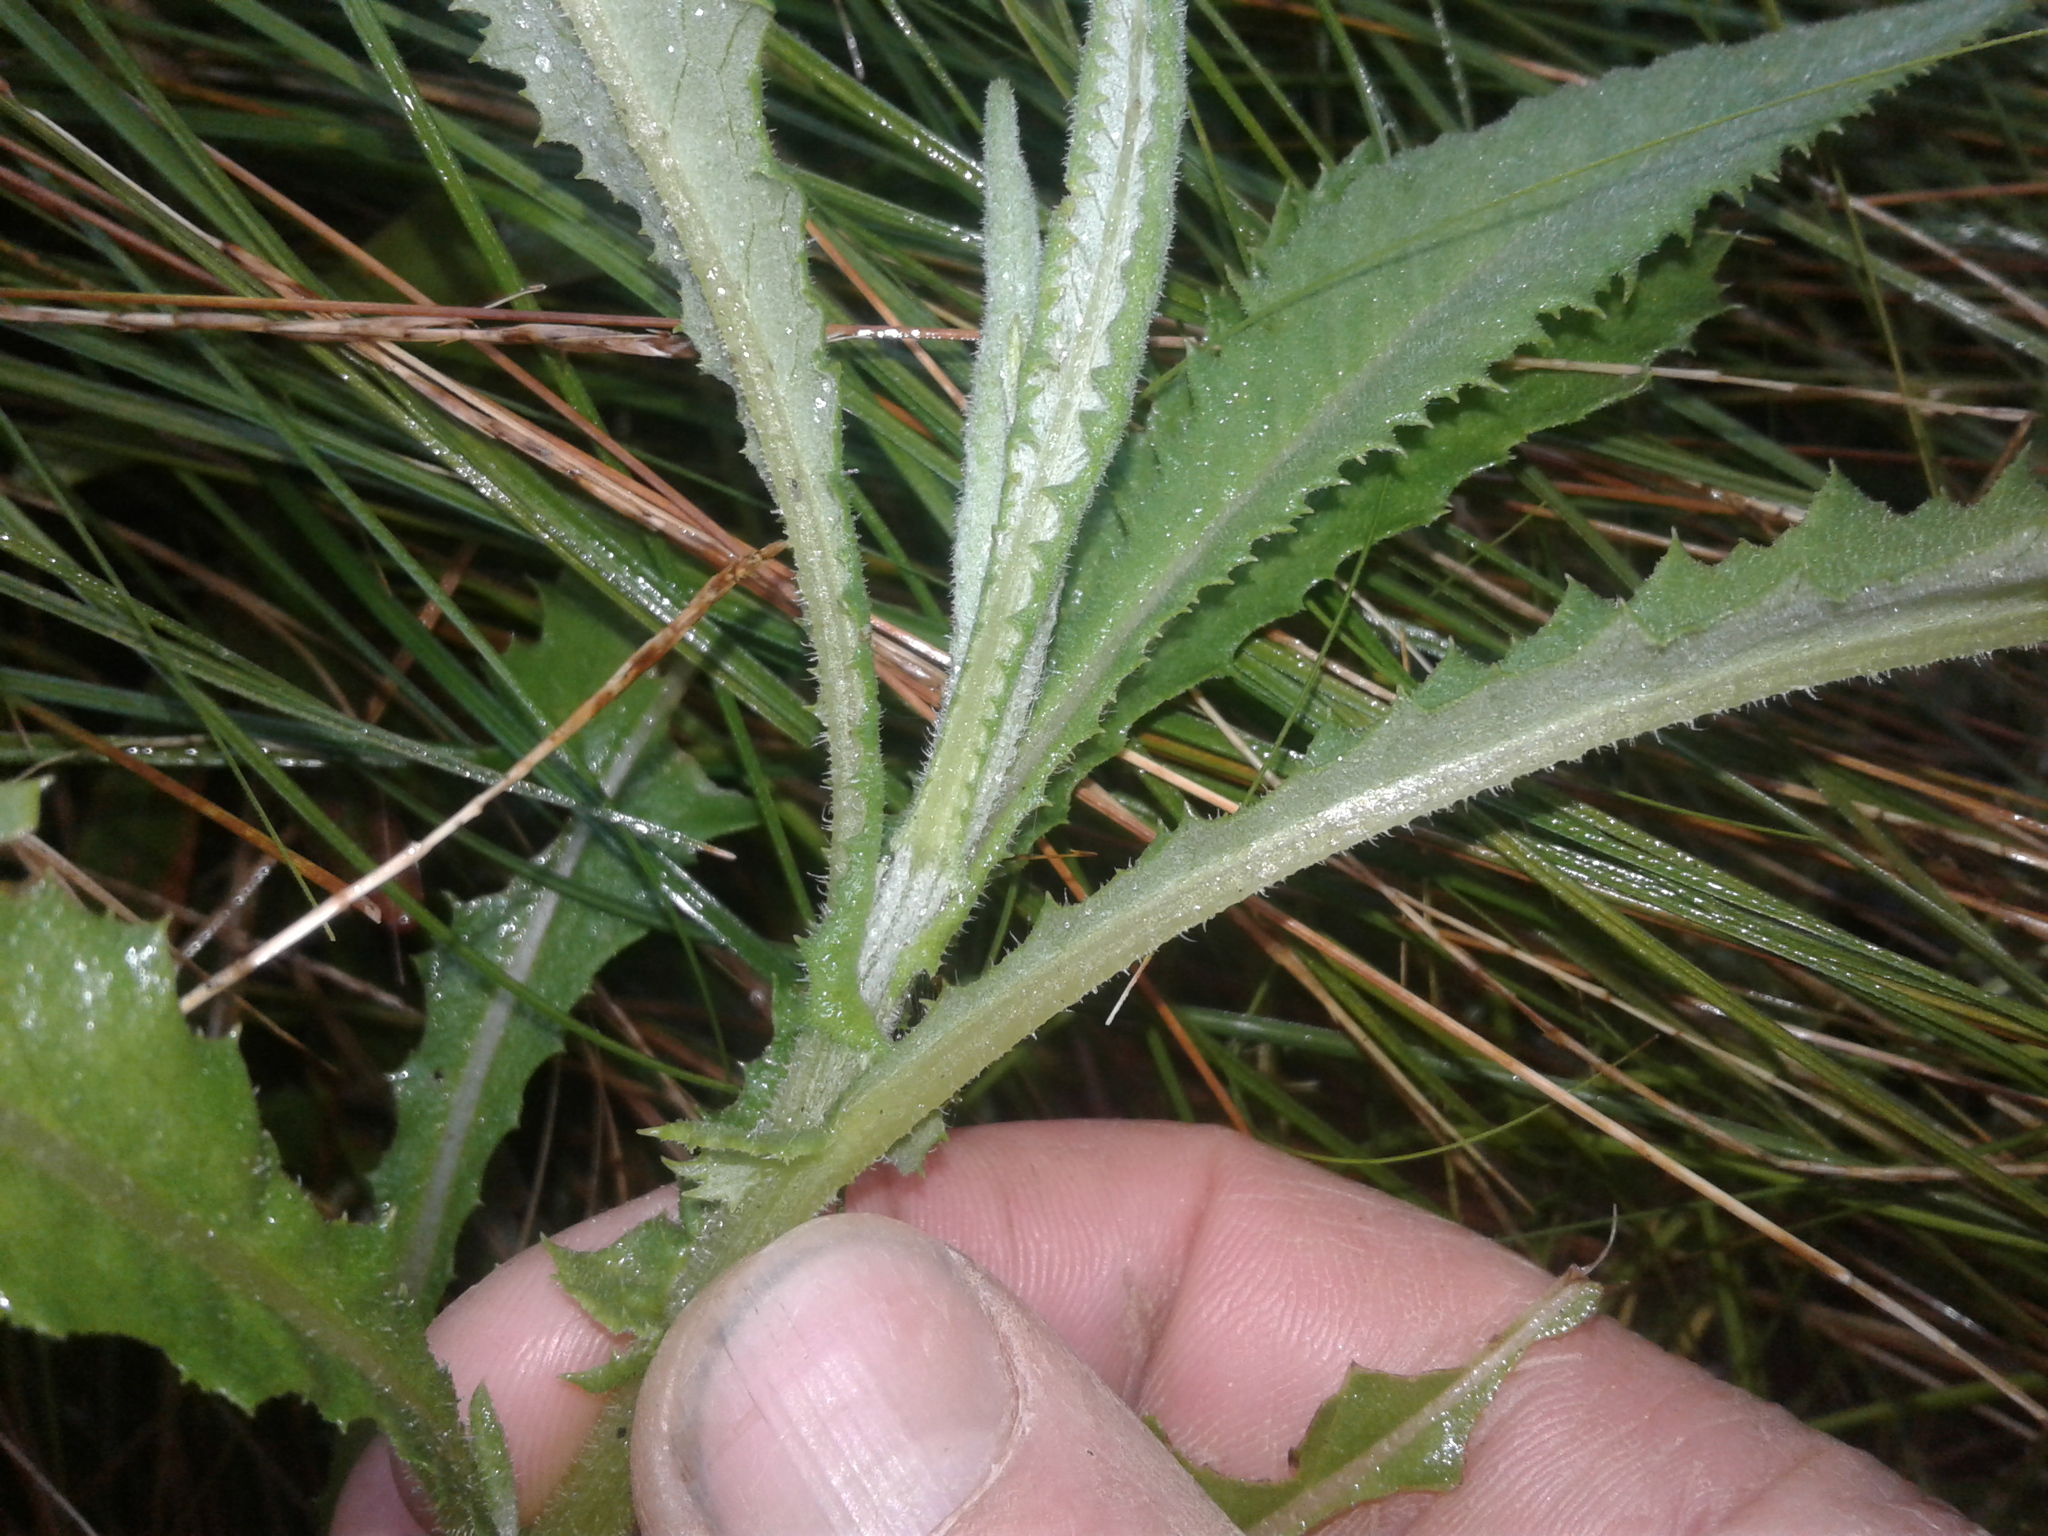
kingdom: Plantae
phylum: Tracheophyta
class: Magnoliopsida
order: Asterales
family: Asteraceae
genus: Senecio
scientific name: Senecio minimus
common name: Toothed fireweed
